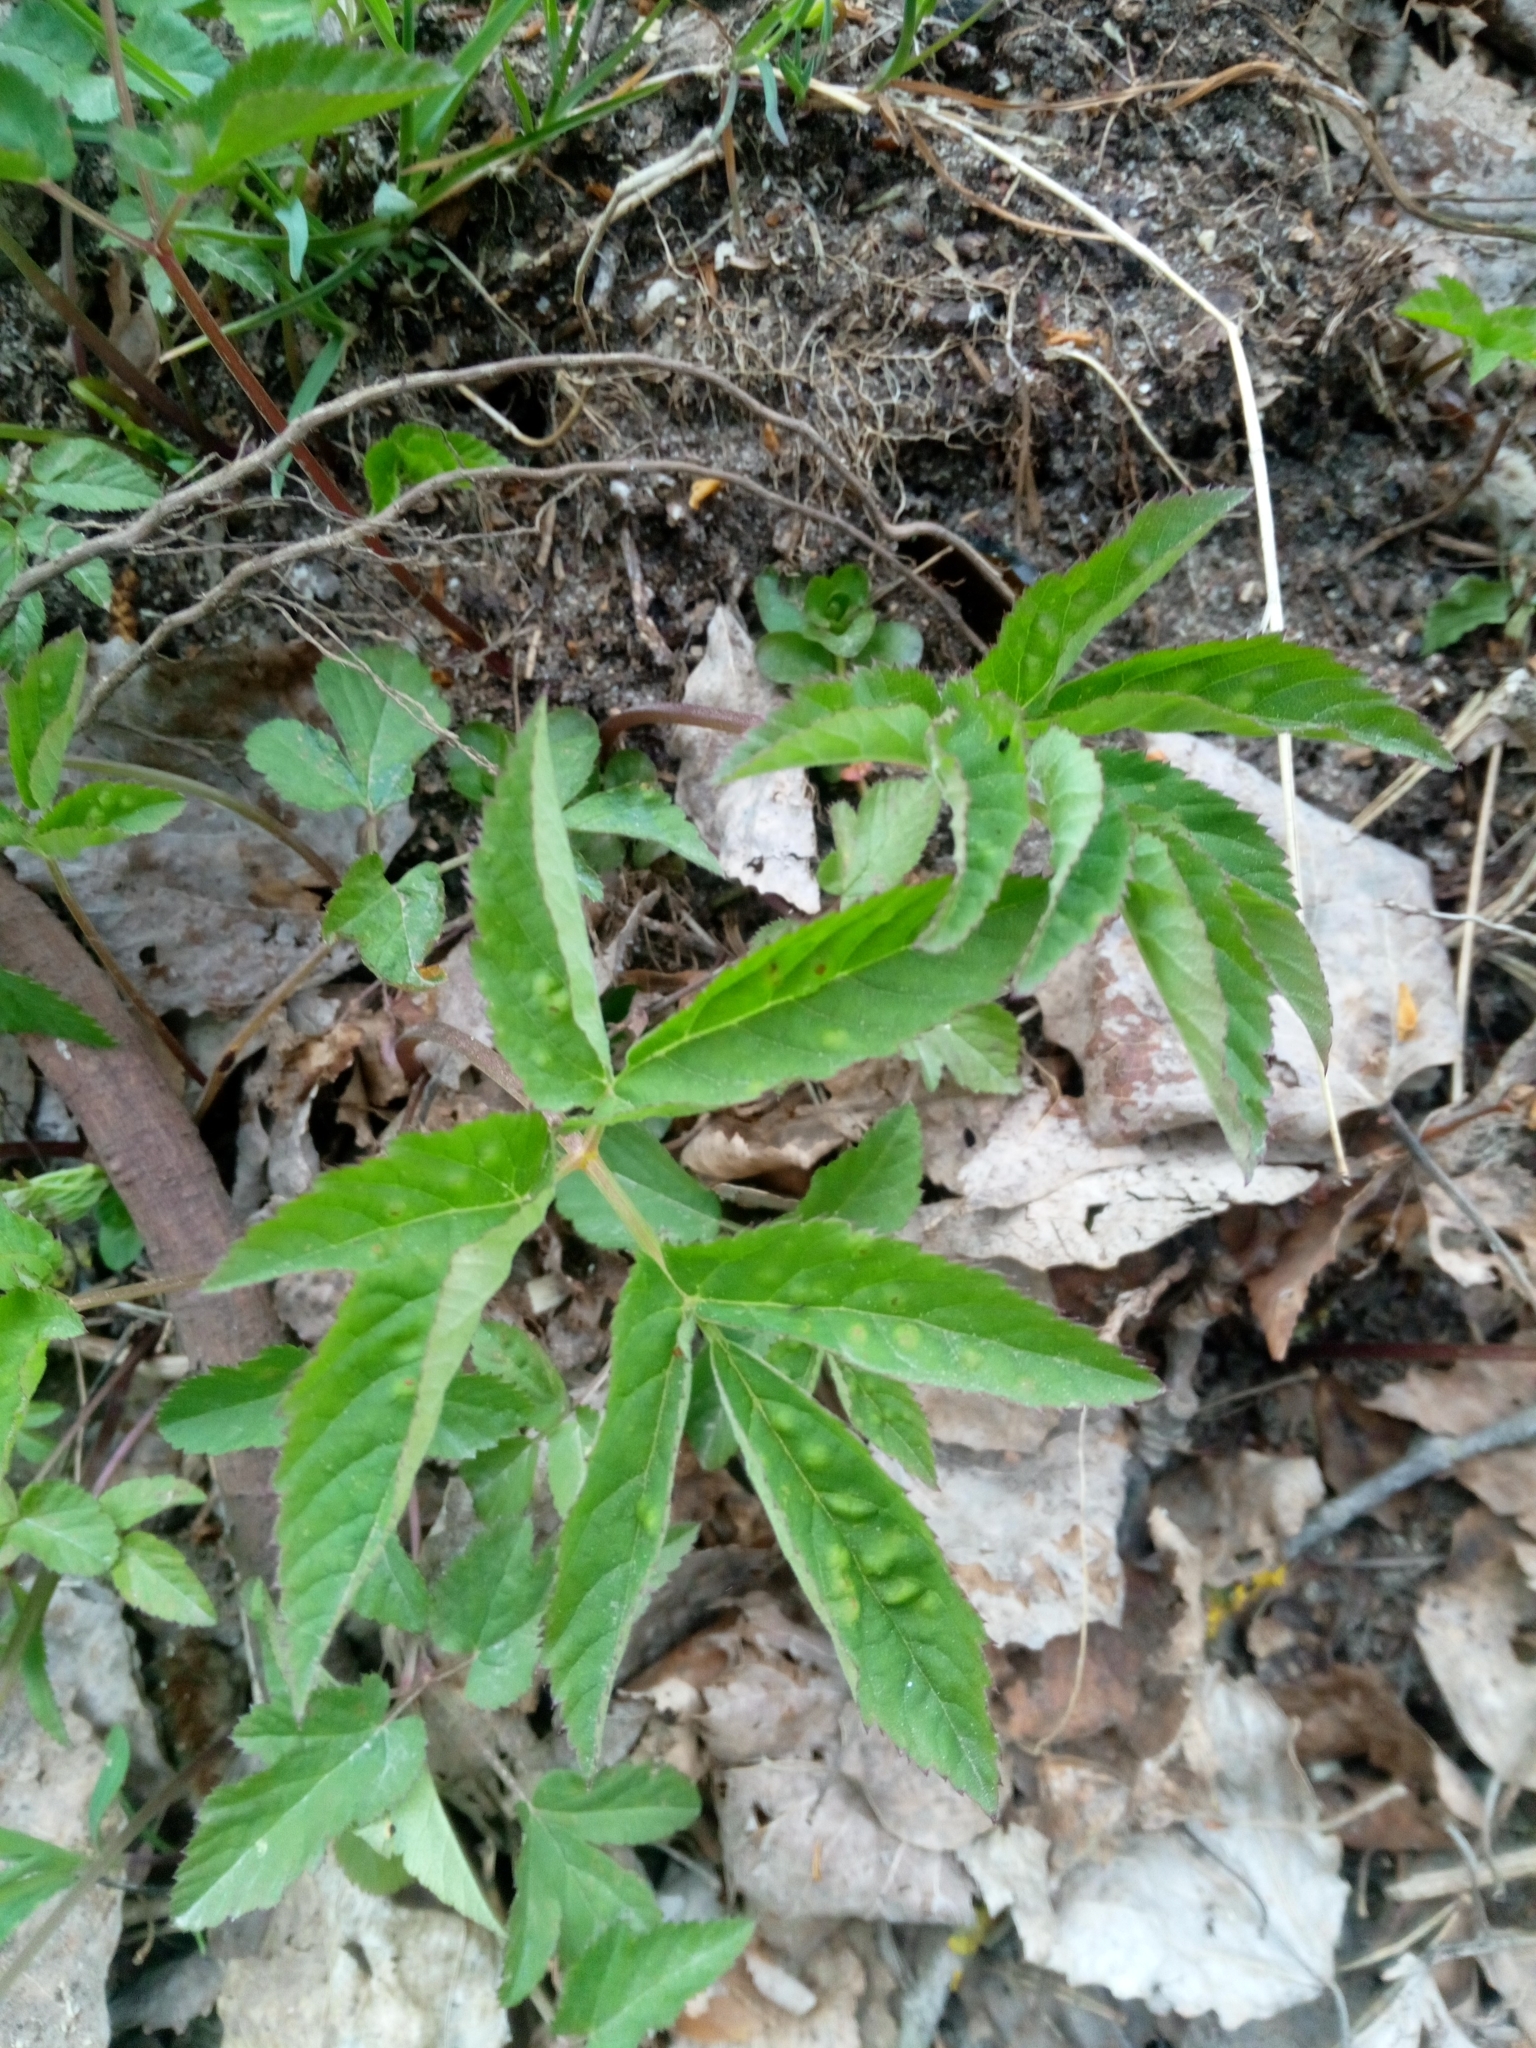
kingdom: Plantae
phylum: Tracheophyta
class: Magnoliopsida
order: Apiales
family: Apiaceae
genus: Aegopodium
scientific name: Aegopodium podagraria
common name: Ground-elder
